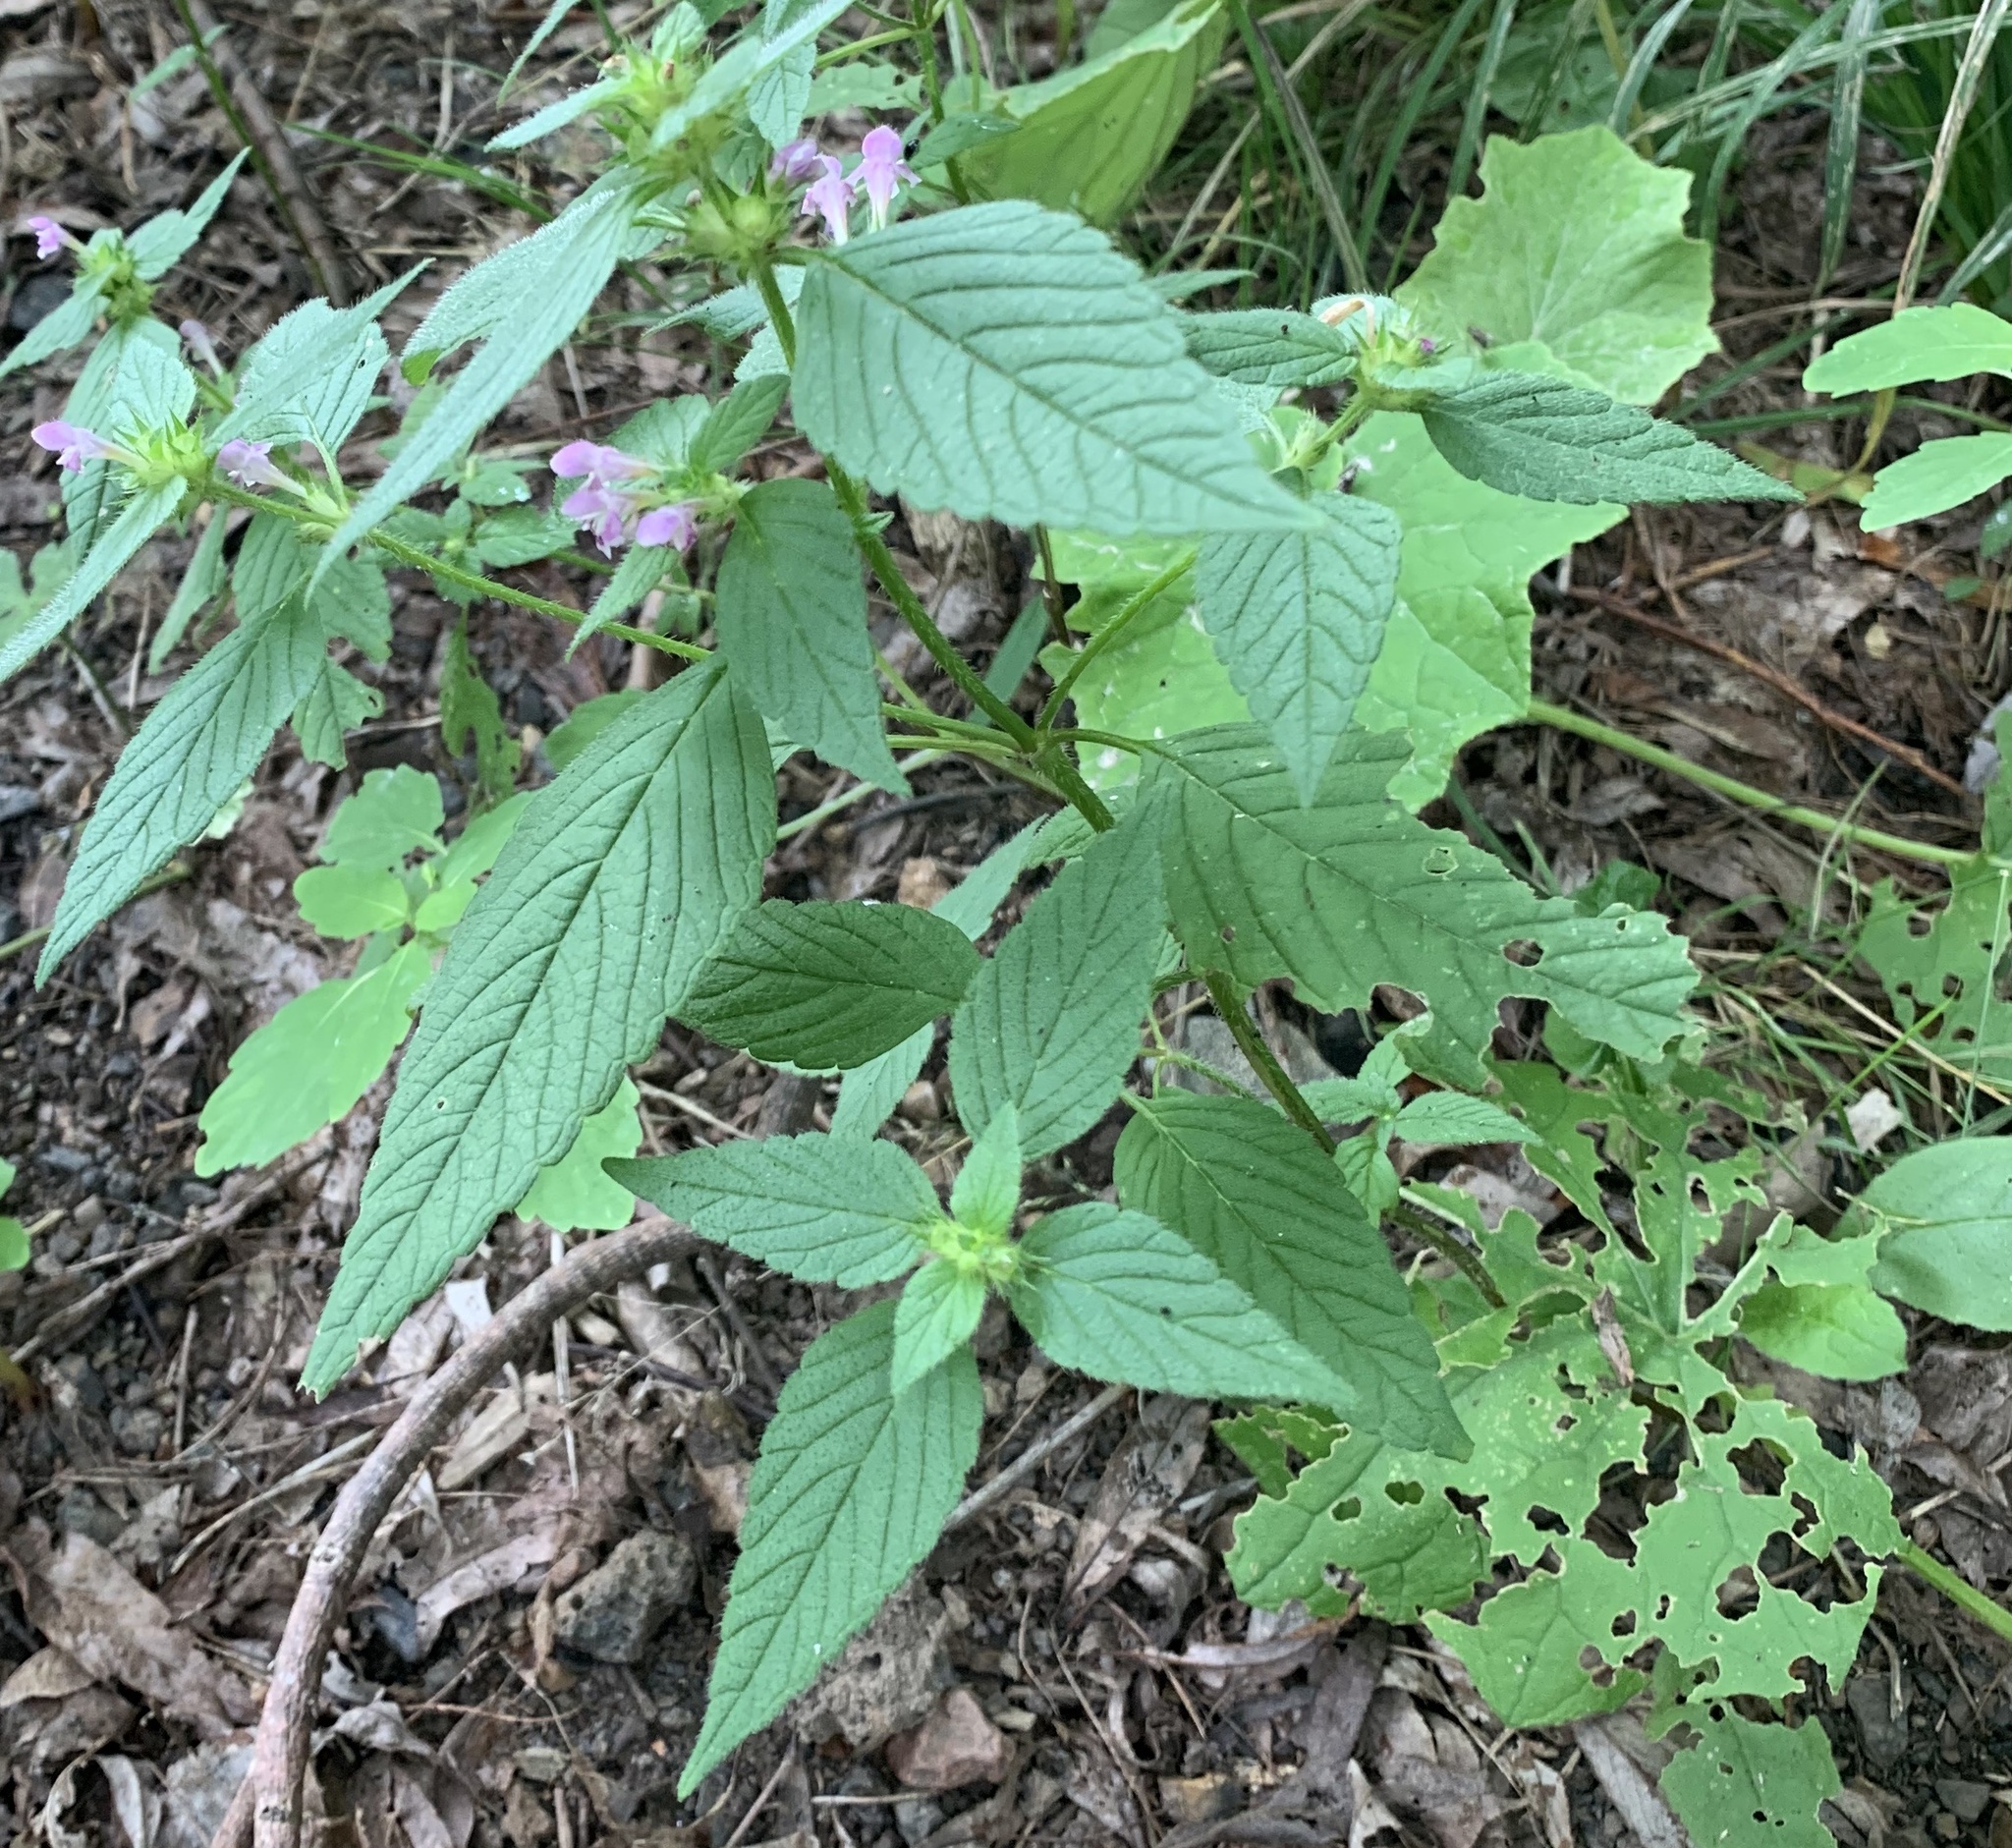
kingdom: Plantae
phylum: Tracheophyta
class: Magnoliopsida
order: Lamiales
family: Lamiaceae
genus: Galeopsis
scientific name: Galeopsis tetrahit
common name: Common hemp-nettle
